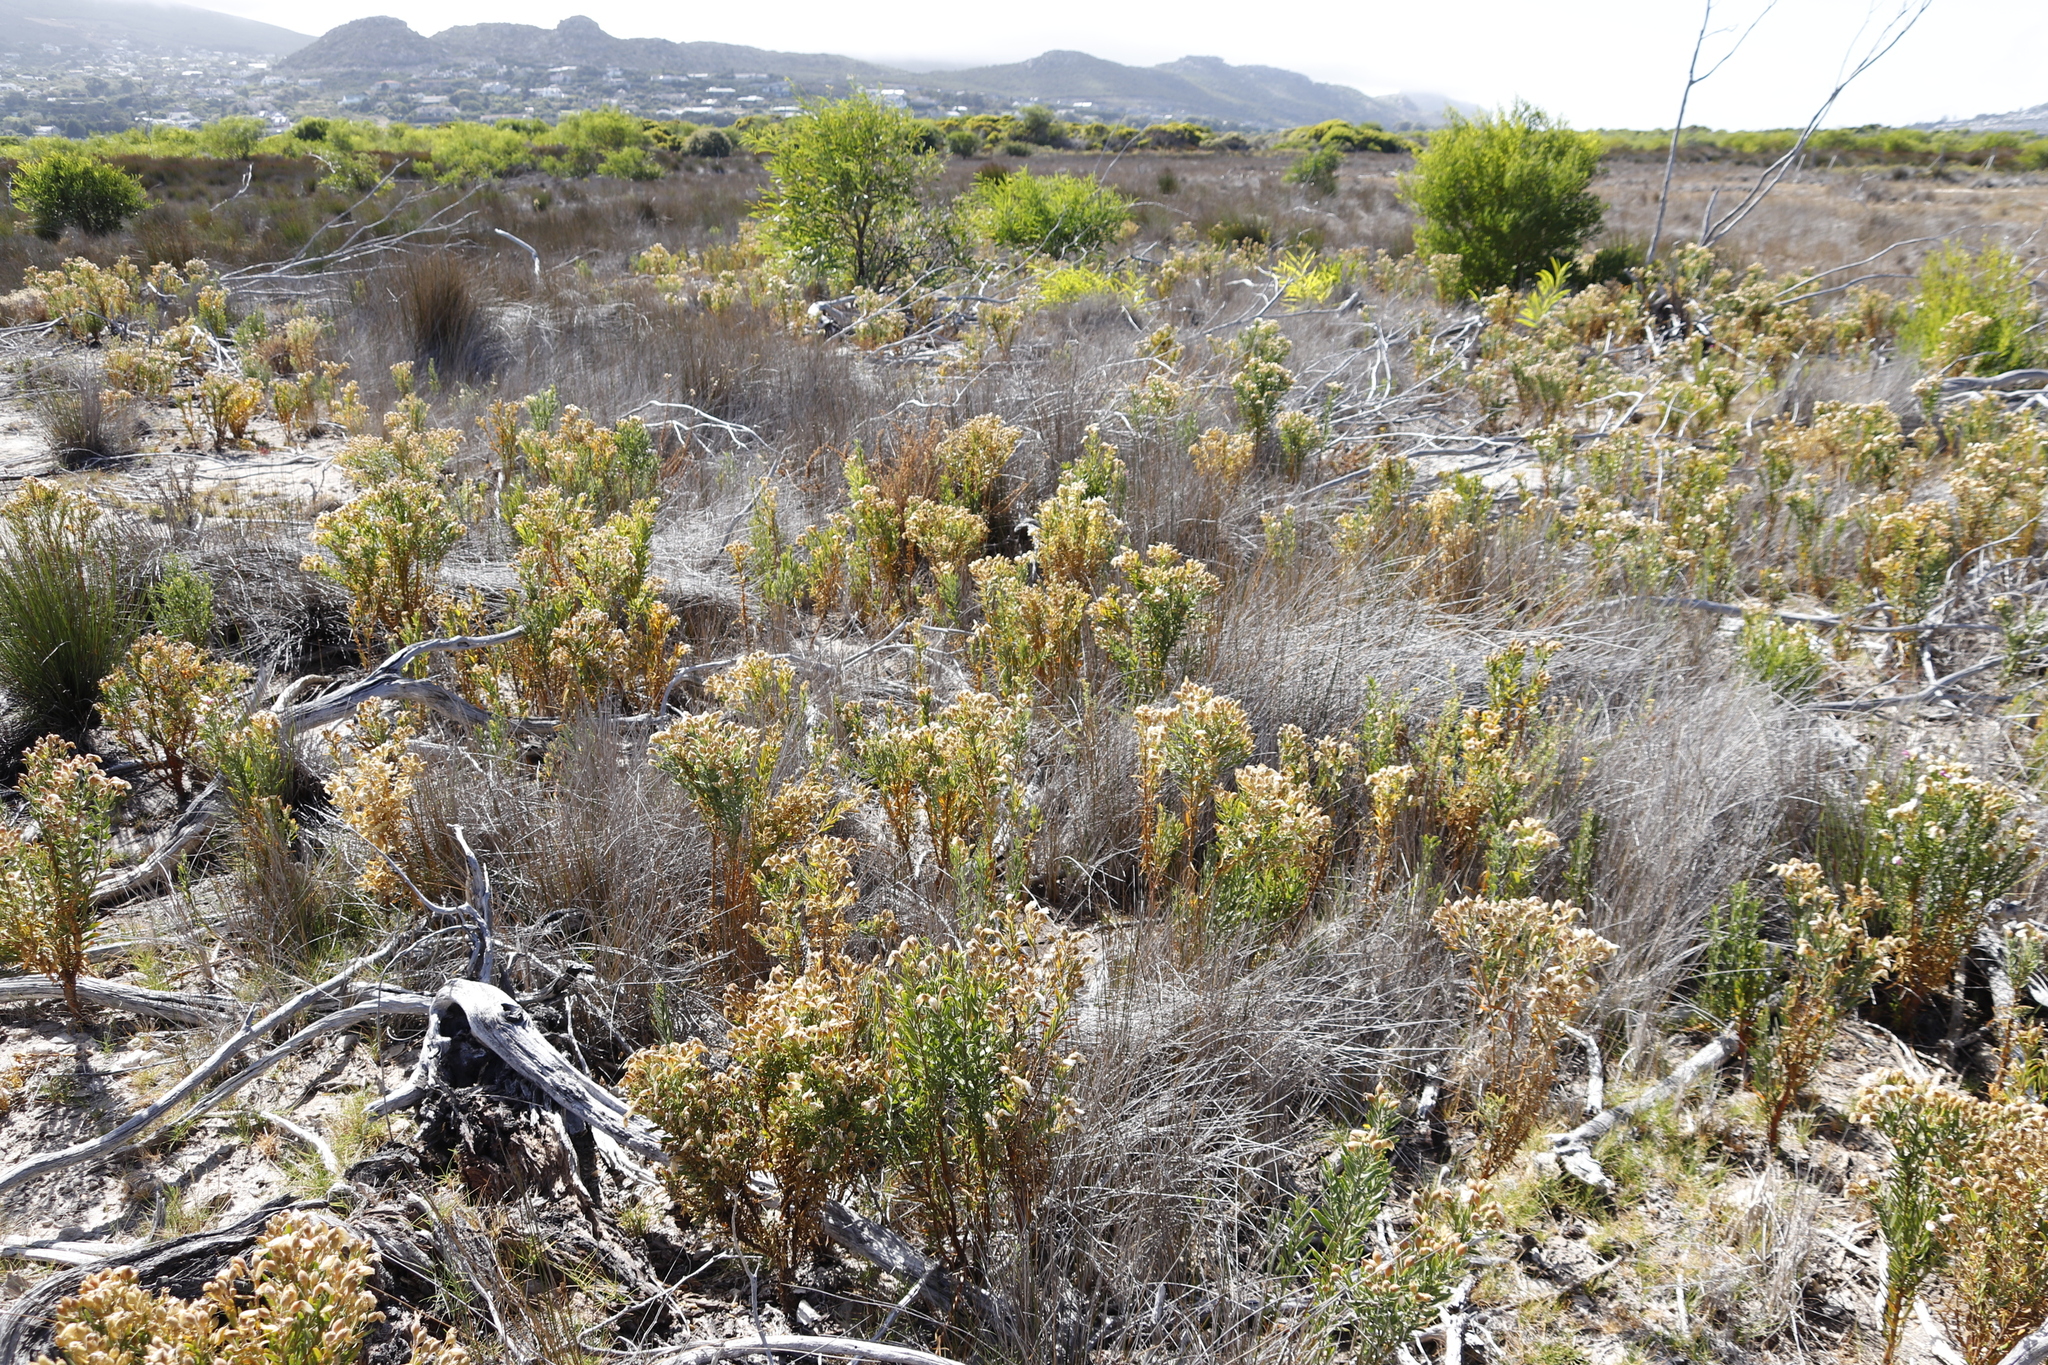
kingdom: Plantae
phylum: Tracheophyta
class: Magnoliopsida
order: Gentianales
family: Gentianaceae
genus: Orphium
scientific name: Orphium frutescens
